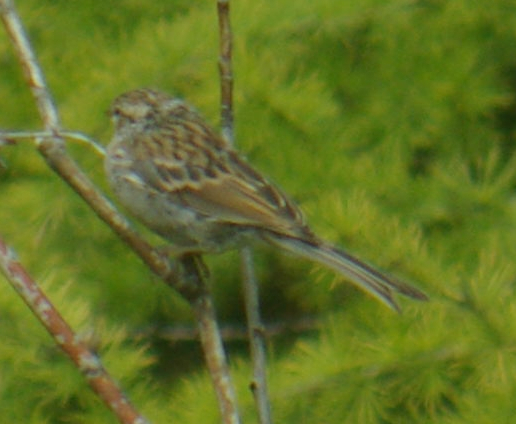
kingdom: Animalia
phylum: Chordata
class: Aves
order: Passeriformes
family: Passerellidae
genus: Spizella
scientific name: Spizella passerina
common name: Chipping sparrow
